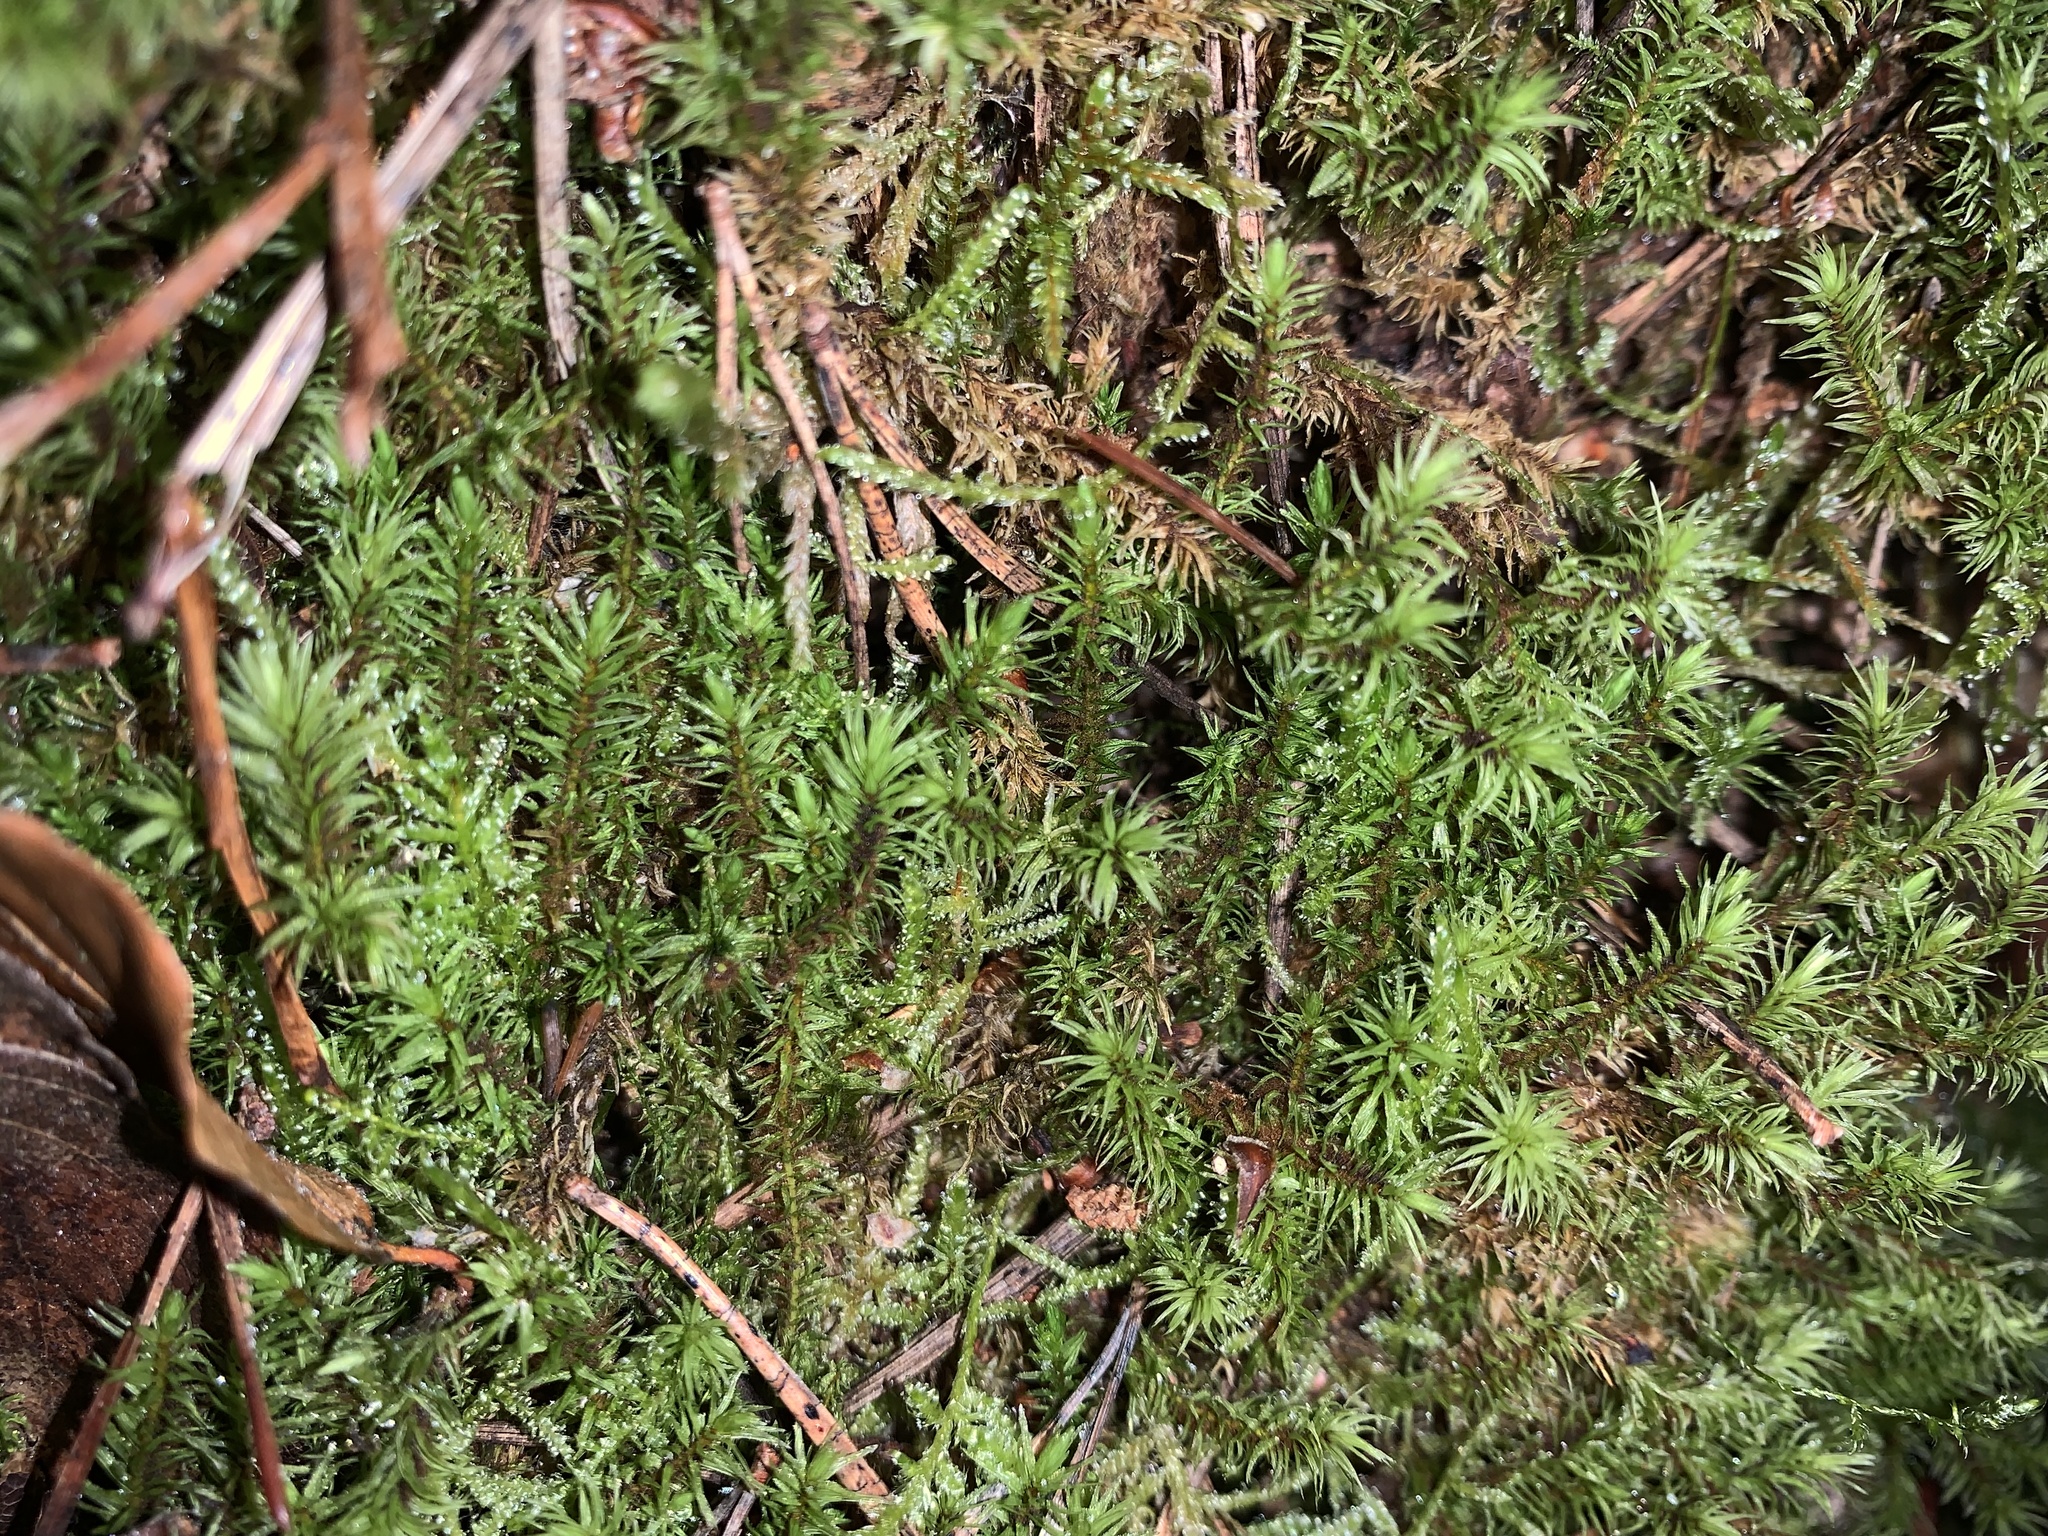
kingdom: Plantae
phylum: Bryophyta
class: Bryopsida
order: Aulacomniales
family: Aulacomniaceae
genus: Aulacomnium
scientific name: Aulacomnium palustre
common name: Bog groove-moss
